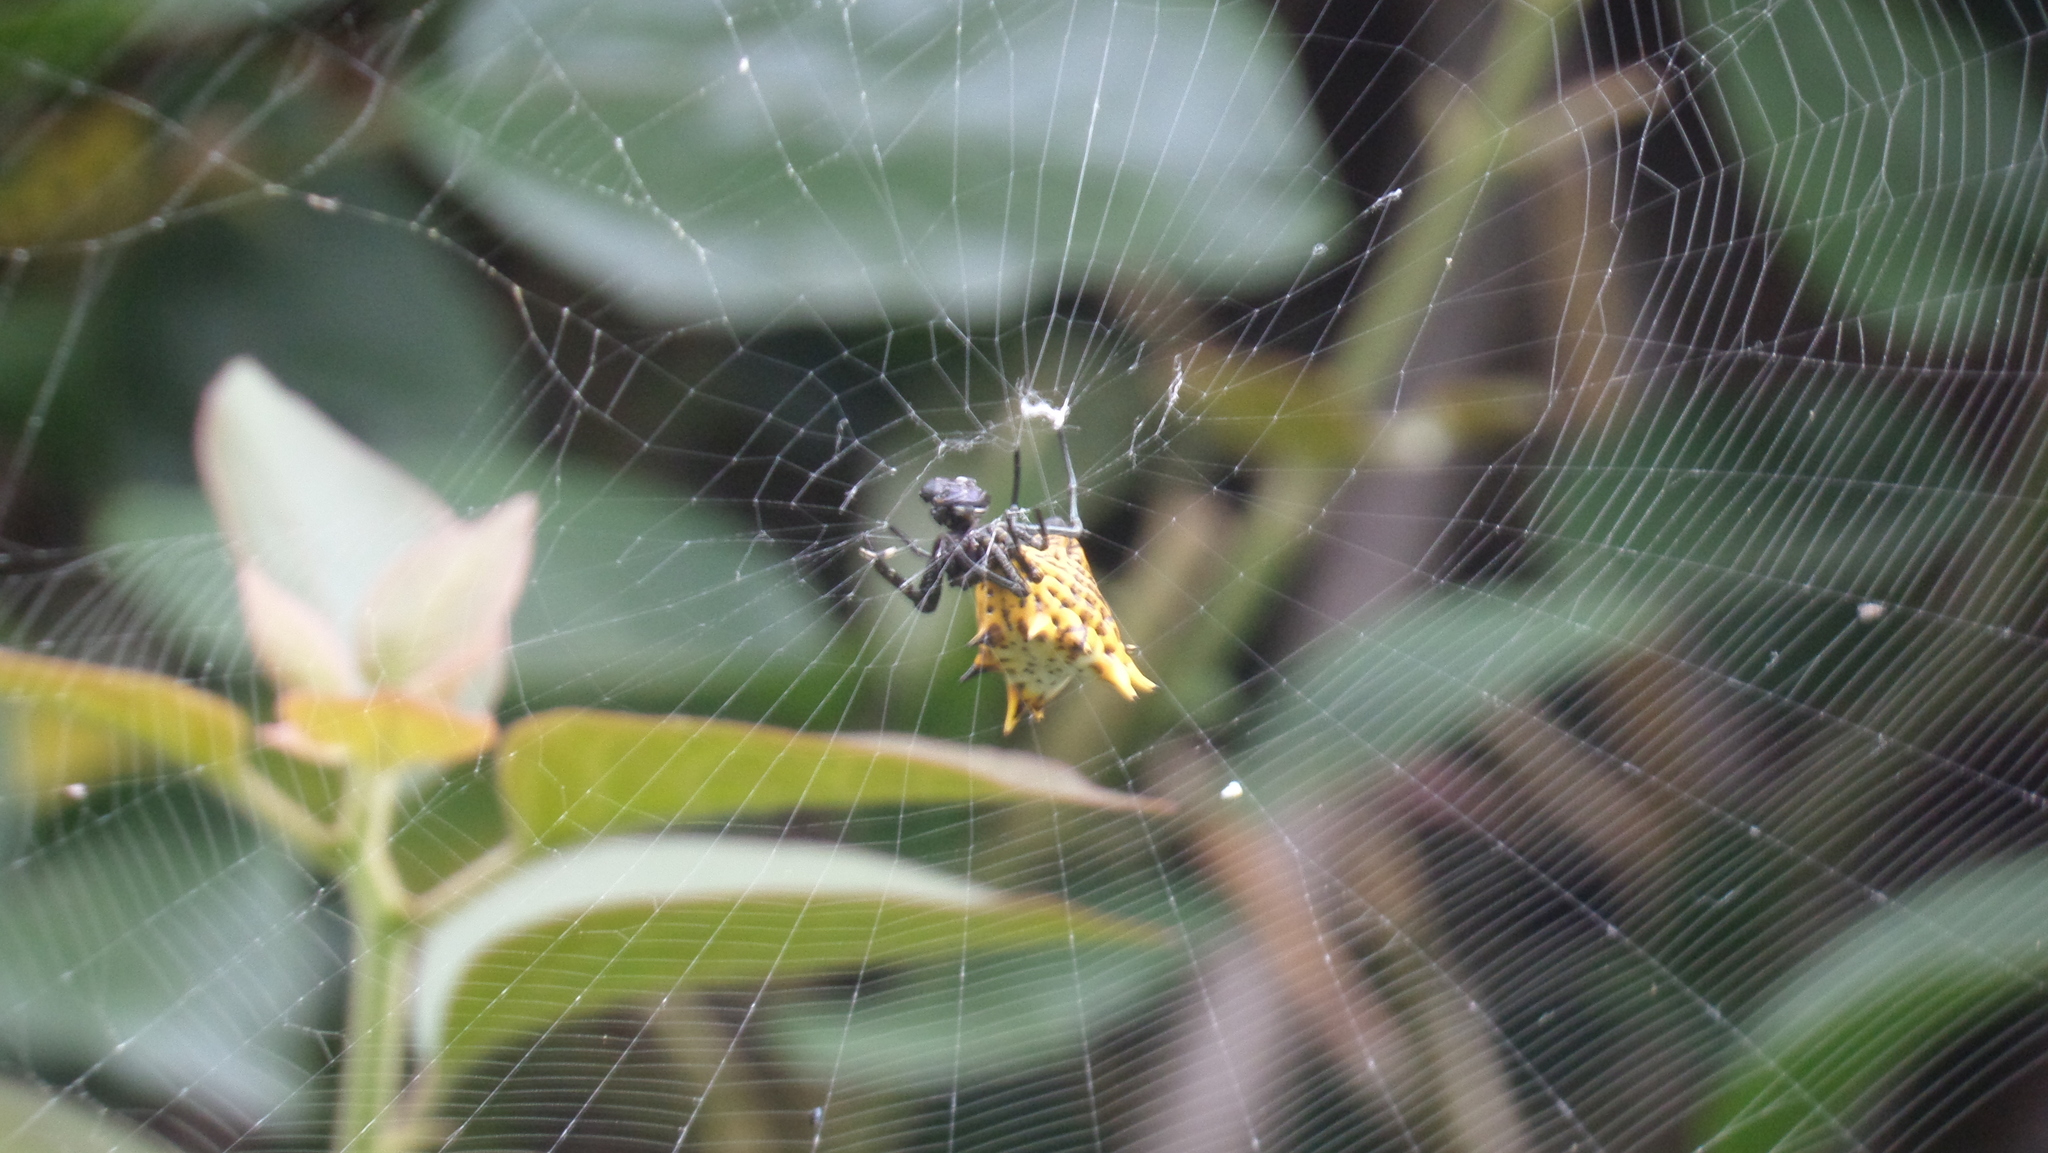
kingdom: Animalia
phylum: Arthropoda
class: Arachnida
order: Araneae
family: Araneidae
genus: Micrathena
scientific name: Micrathena gracilis
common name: Orb weavers
